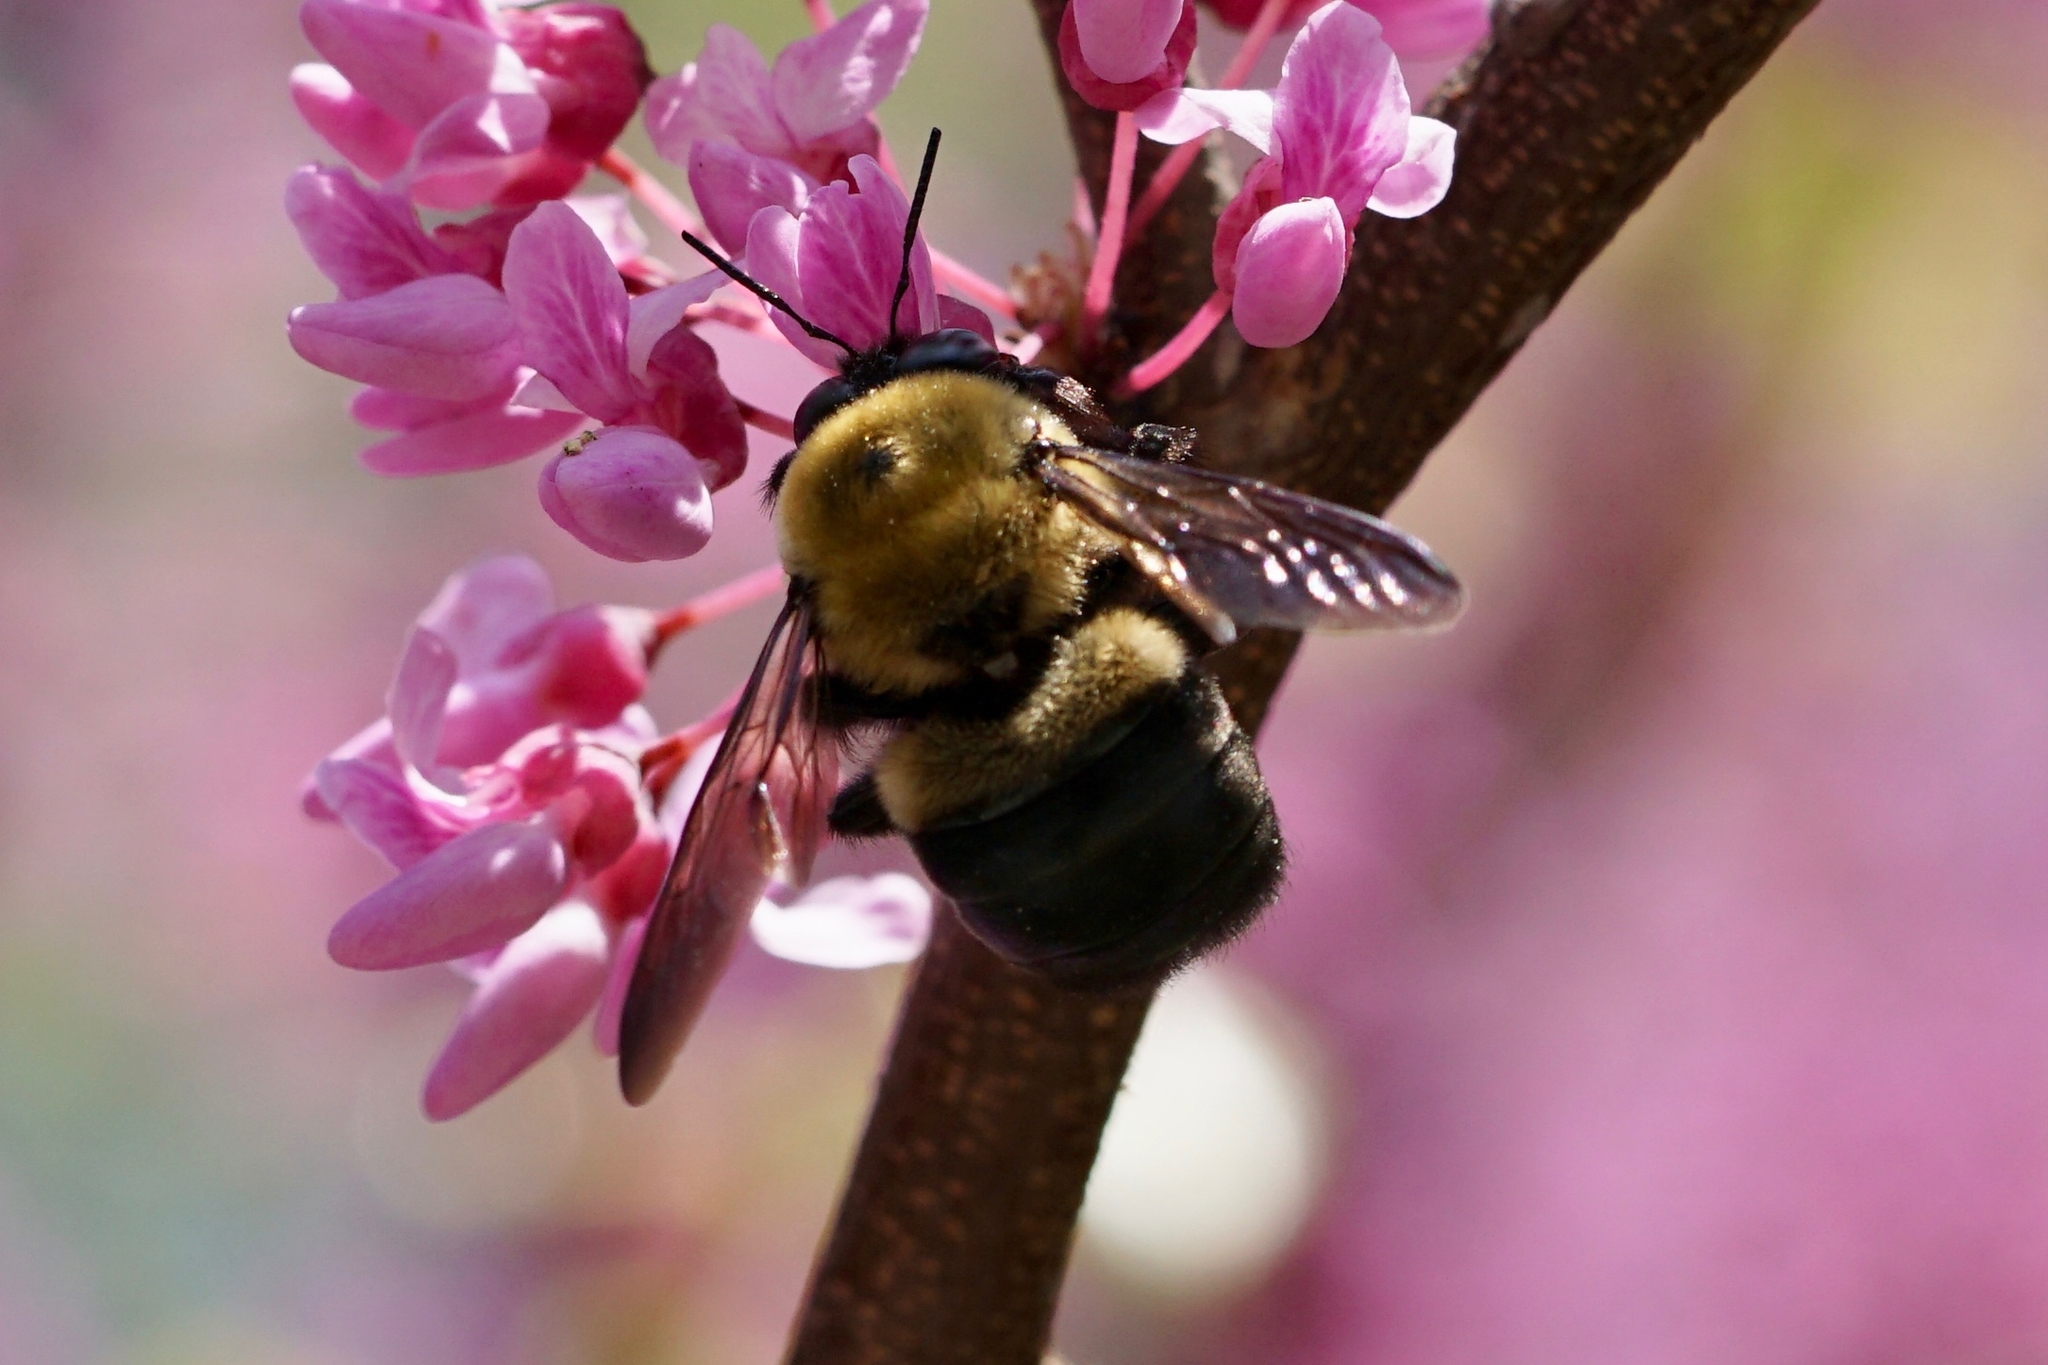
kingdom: Animalia
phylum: Arthropoda
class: Insecta
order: Hymenoptera
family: Apidae
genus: Xylocopa
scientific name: Xylocopa virginica
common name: Carpenter bee
